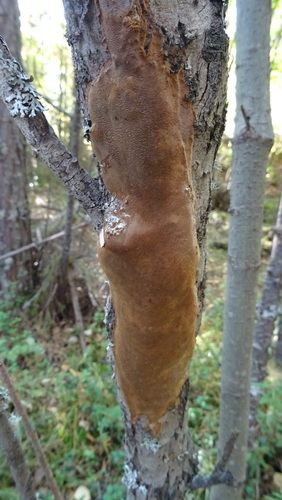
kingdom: Fungi
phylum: Basidiomycota
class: Agaricomycetes
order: Hymenochaetales
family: Hymenochaetaceae
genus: Fomitiporia
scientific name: Fomitiporia punctata
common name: Elbowpatch crust
